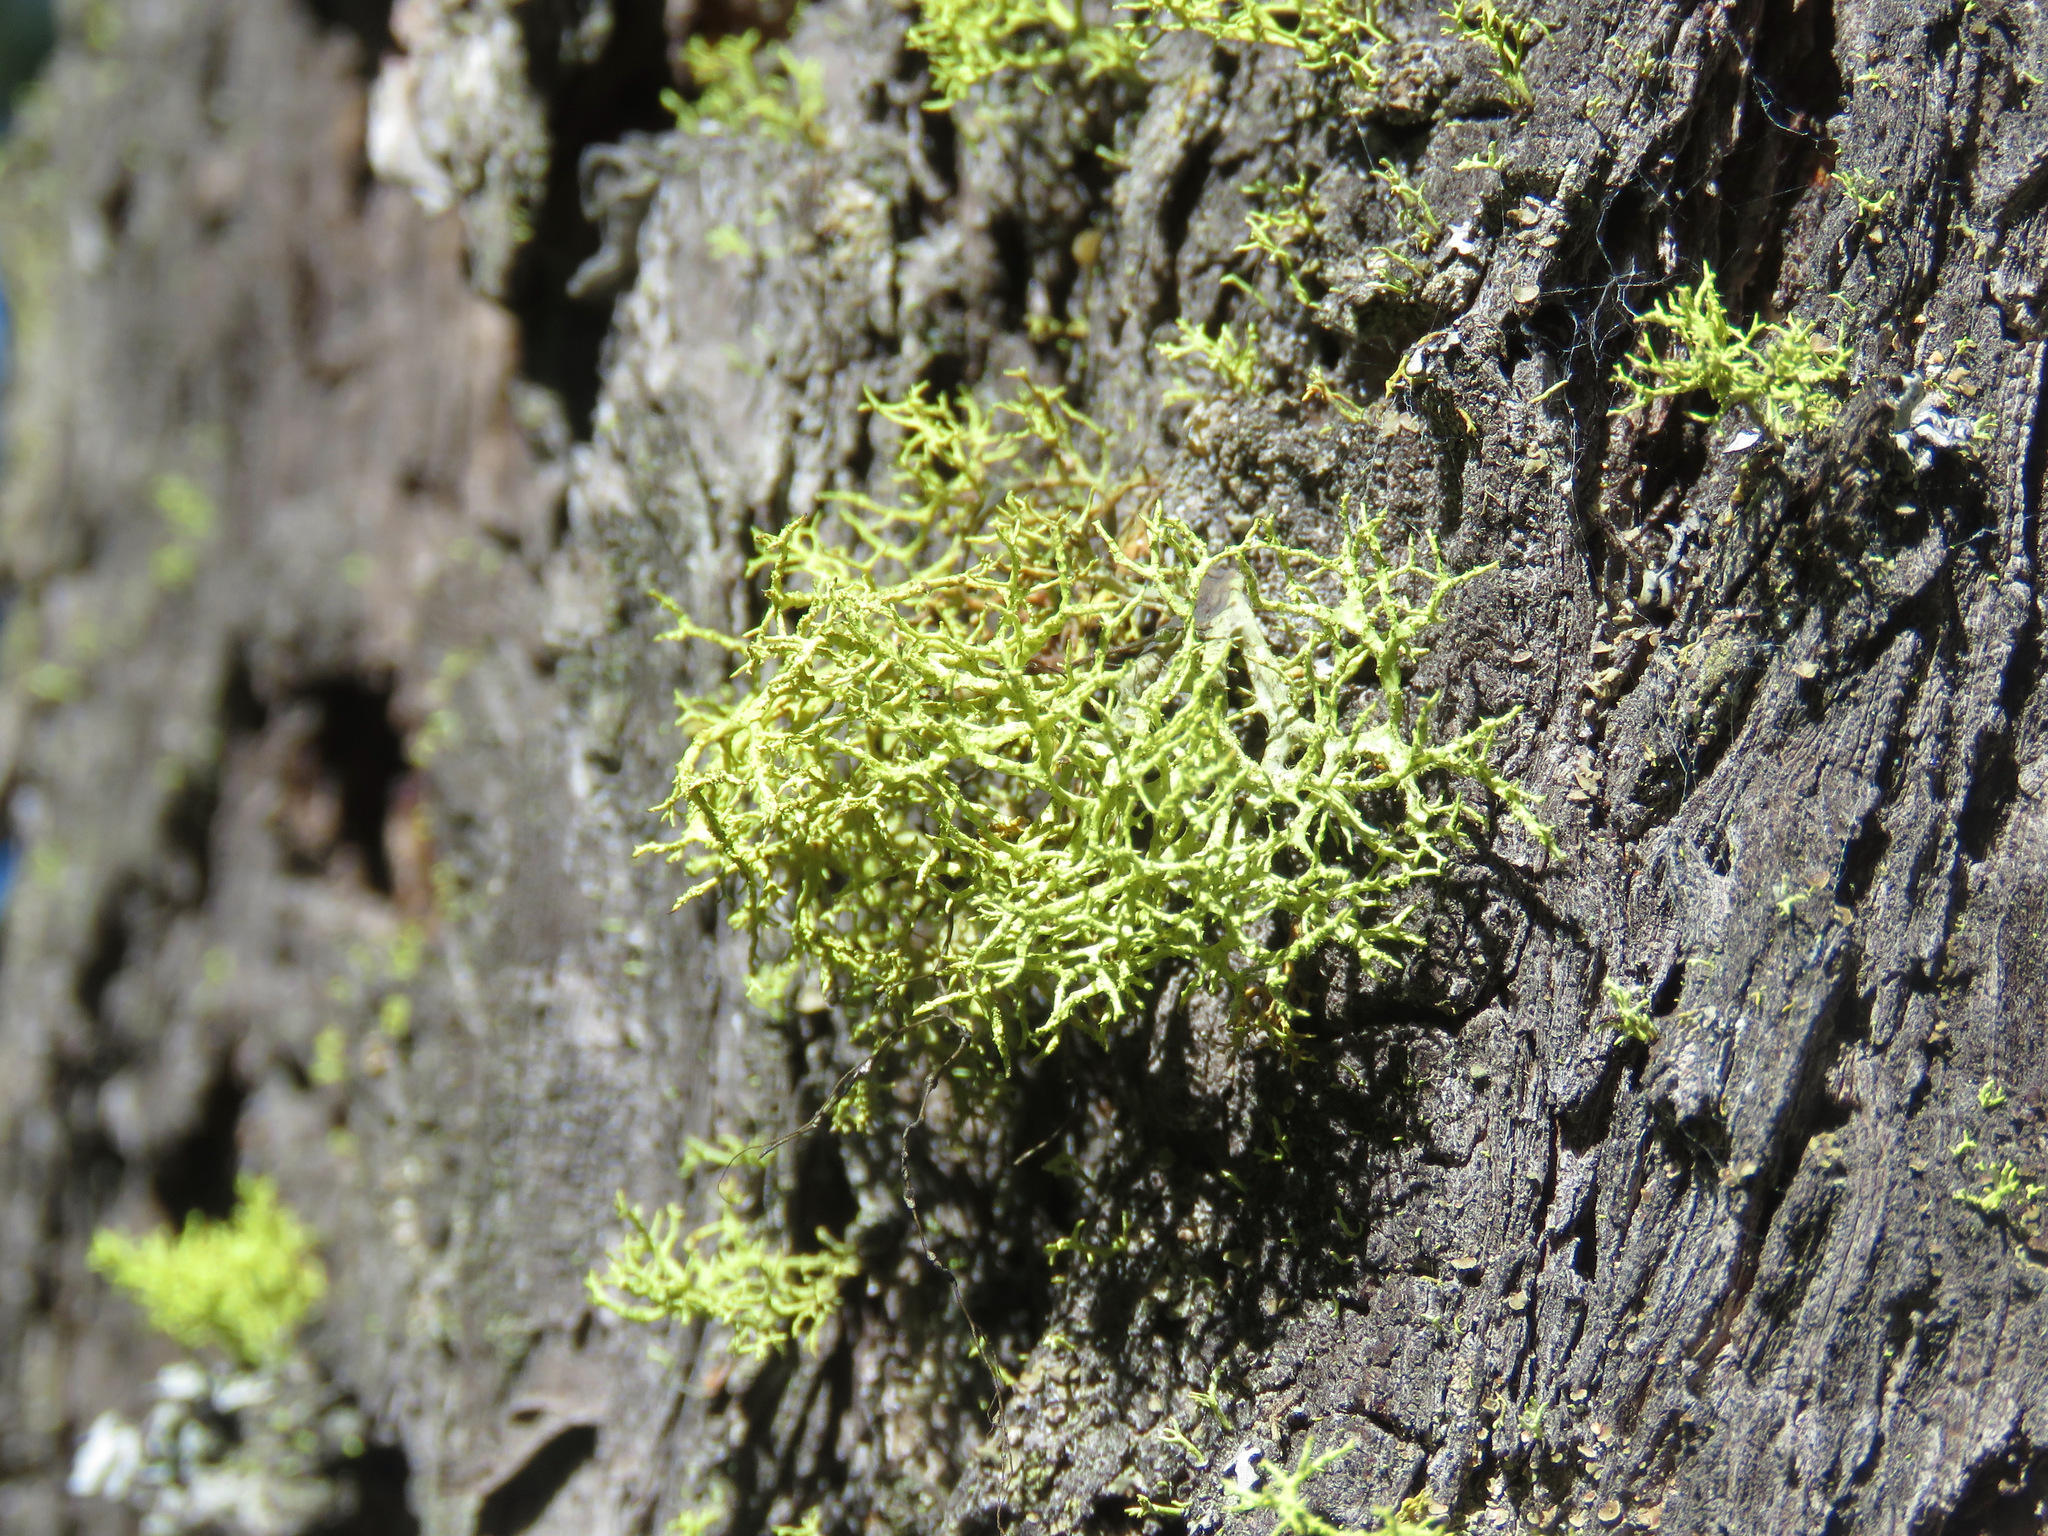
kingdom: Fungi
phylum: Ascomycota
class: Lecanoromycetes
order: Lecanorales
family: Parmeliaceae
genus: Letharia
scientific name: Letharia vulpina
